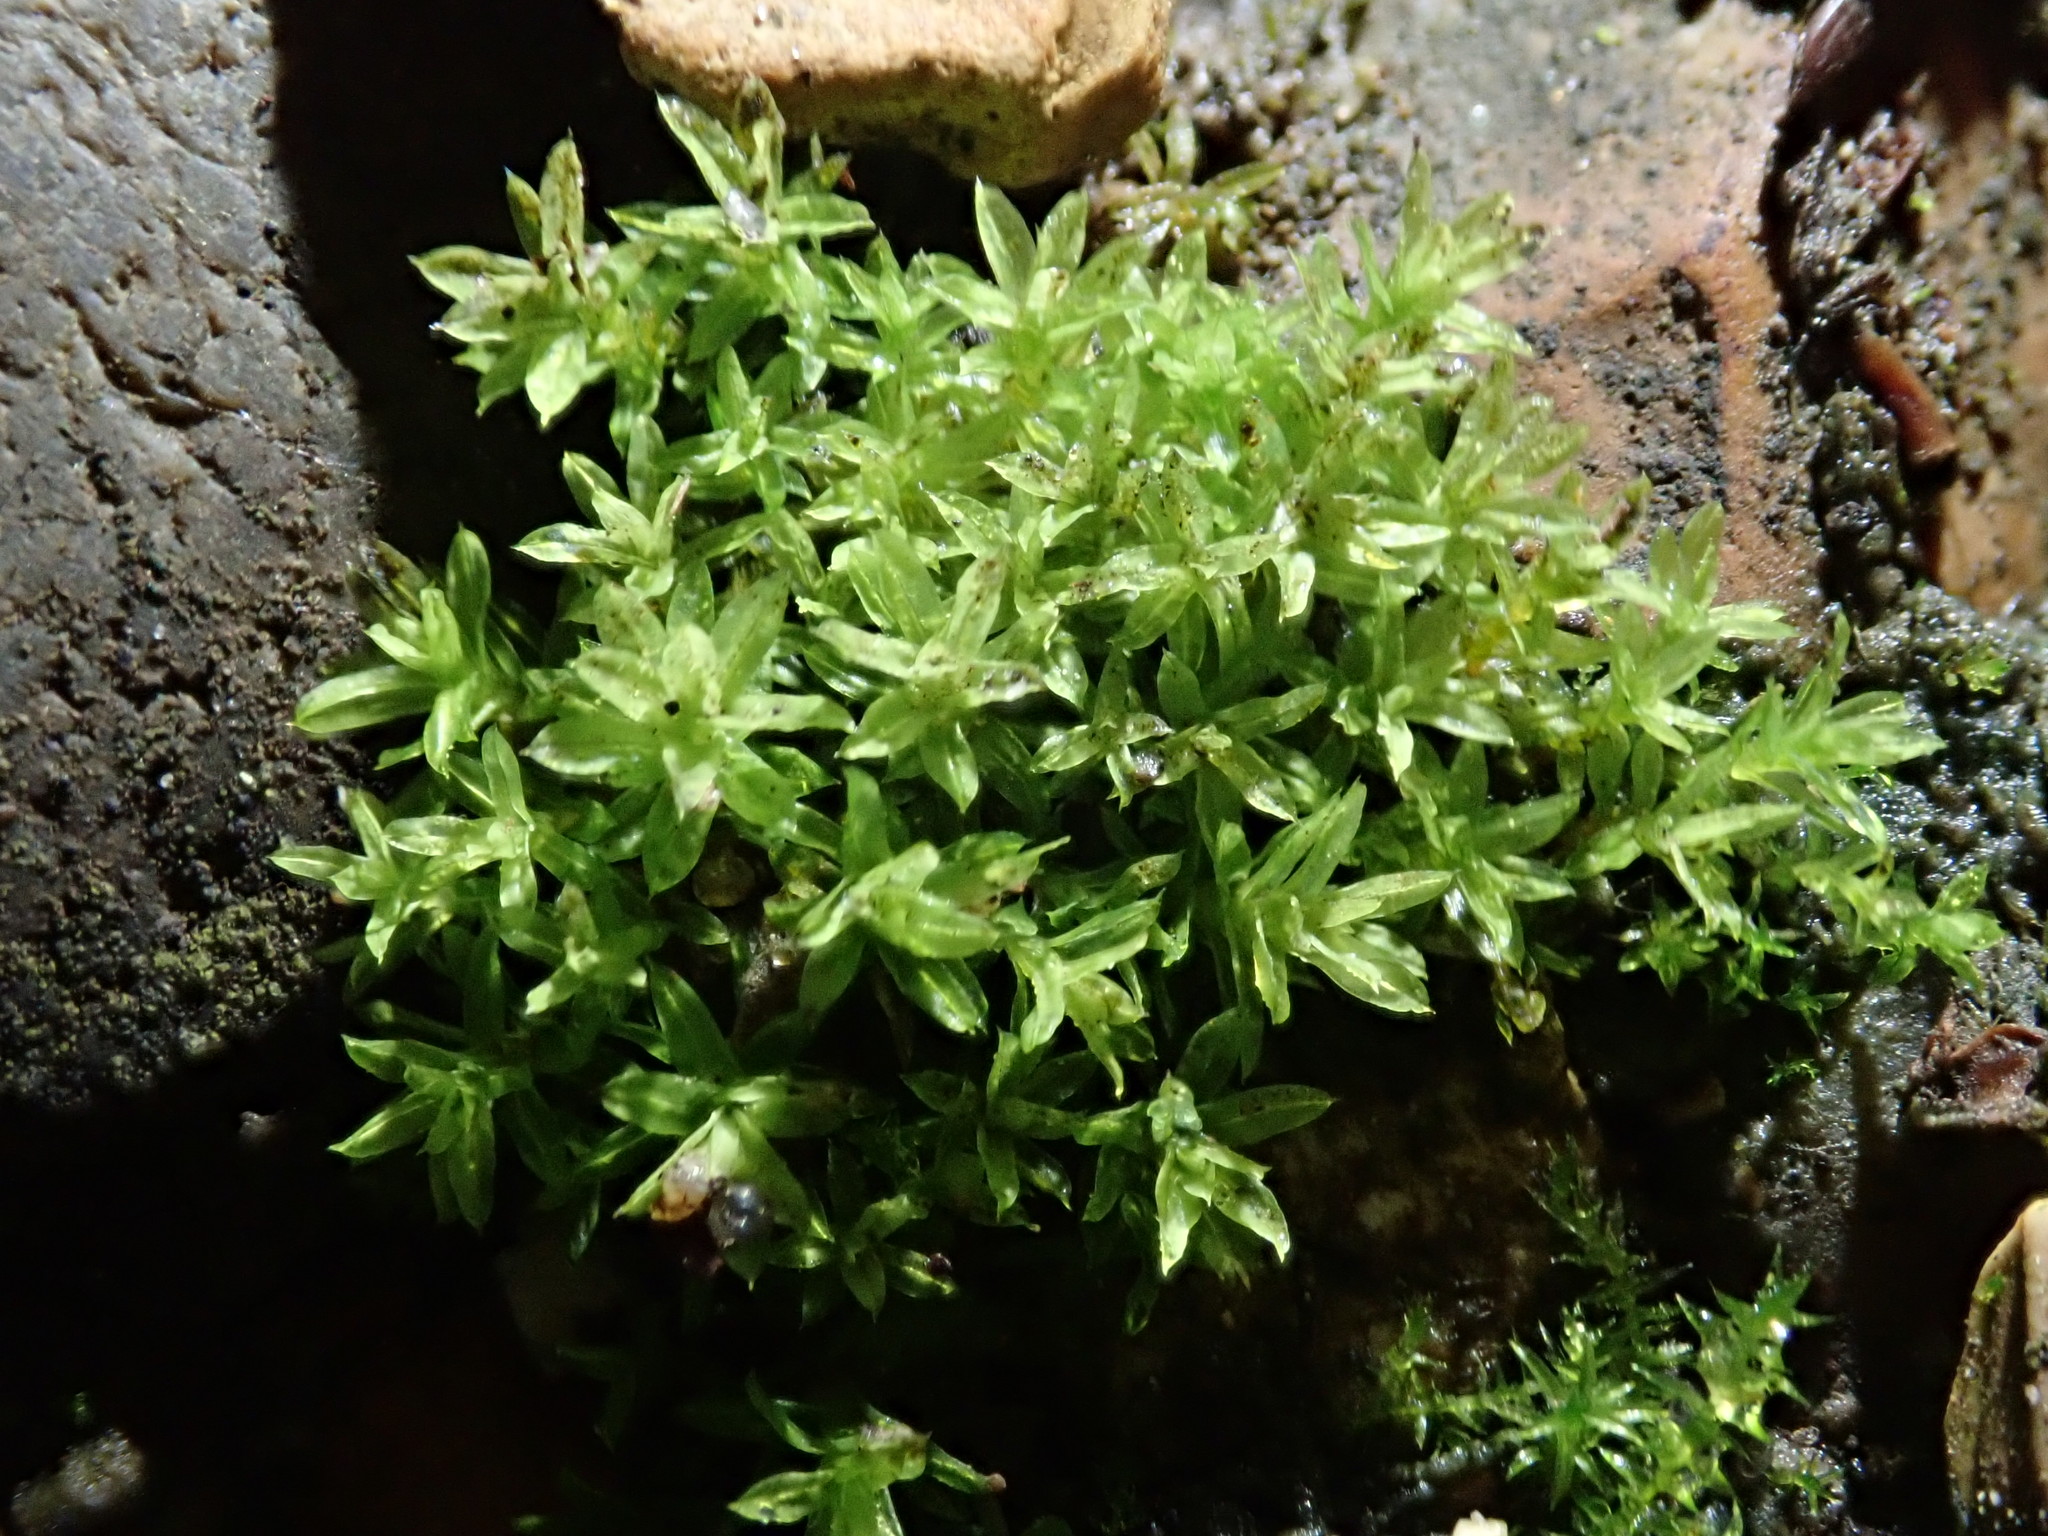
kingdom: Plantae
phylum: Bryophyta
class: Bryopsida
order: Pottiales
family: Pottiaceae
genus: Barbula
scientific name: Barbula unguiculata
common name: Prickly beard moss
